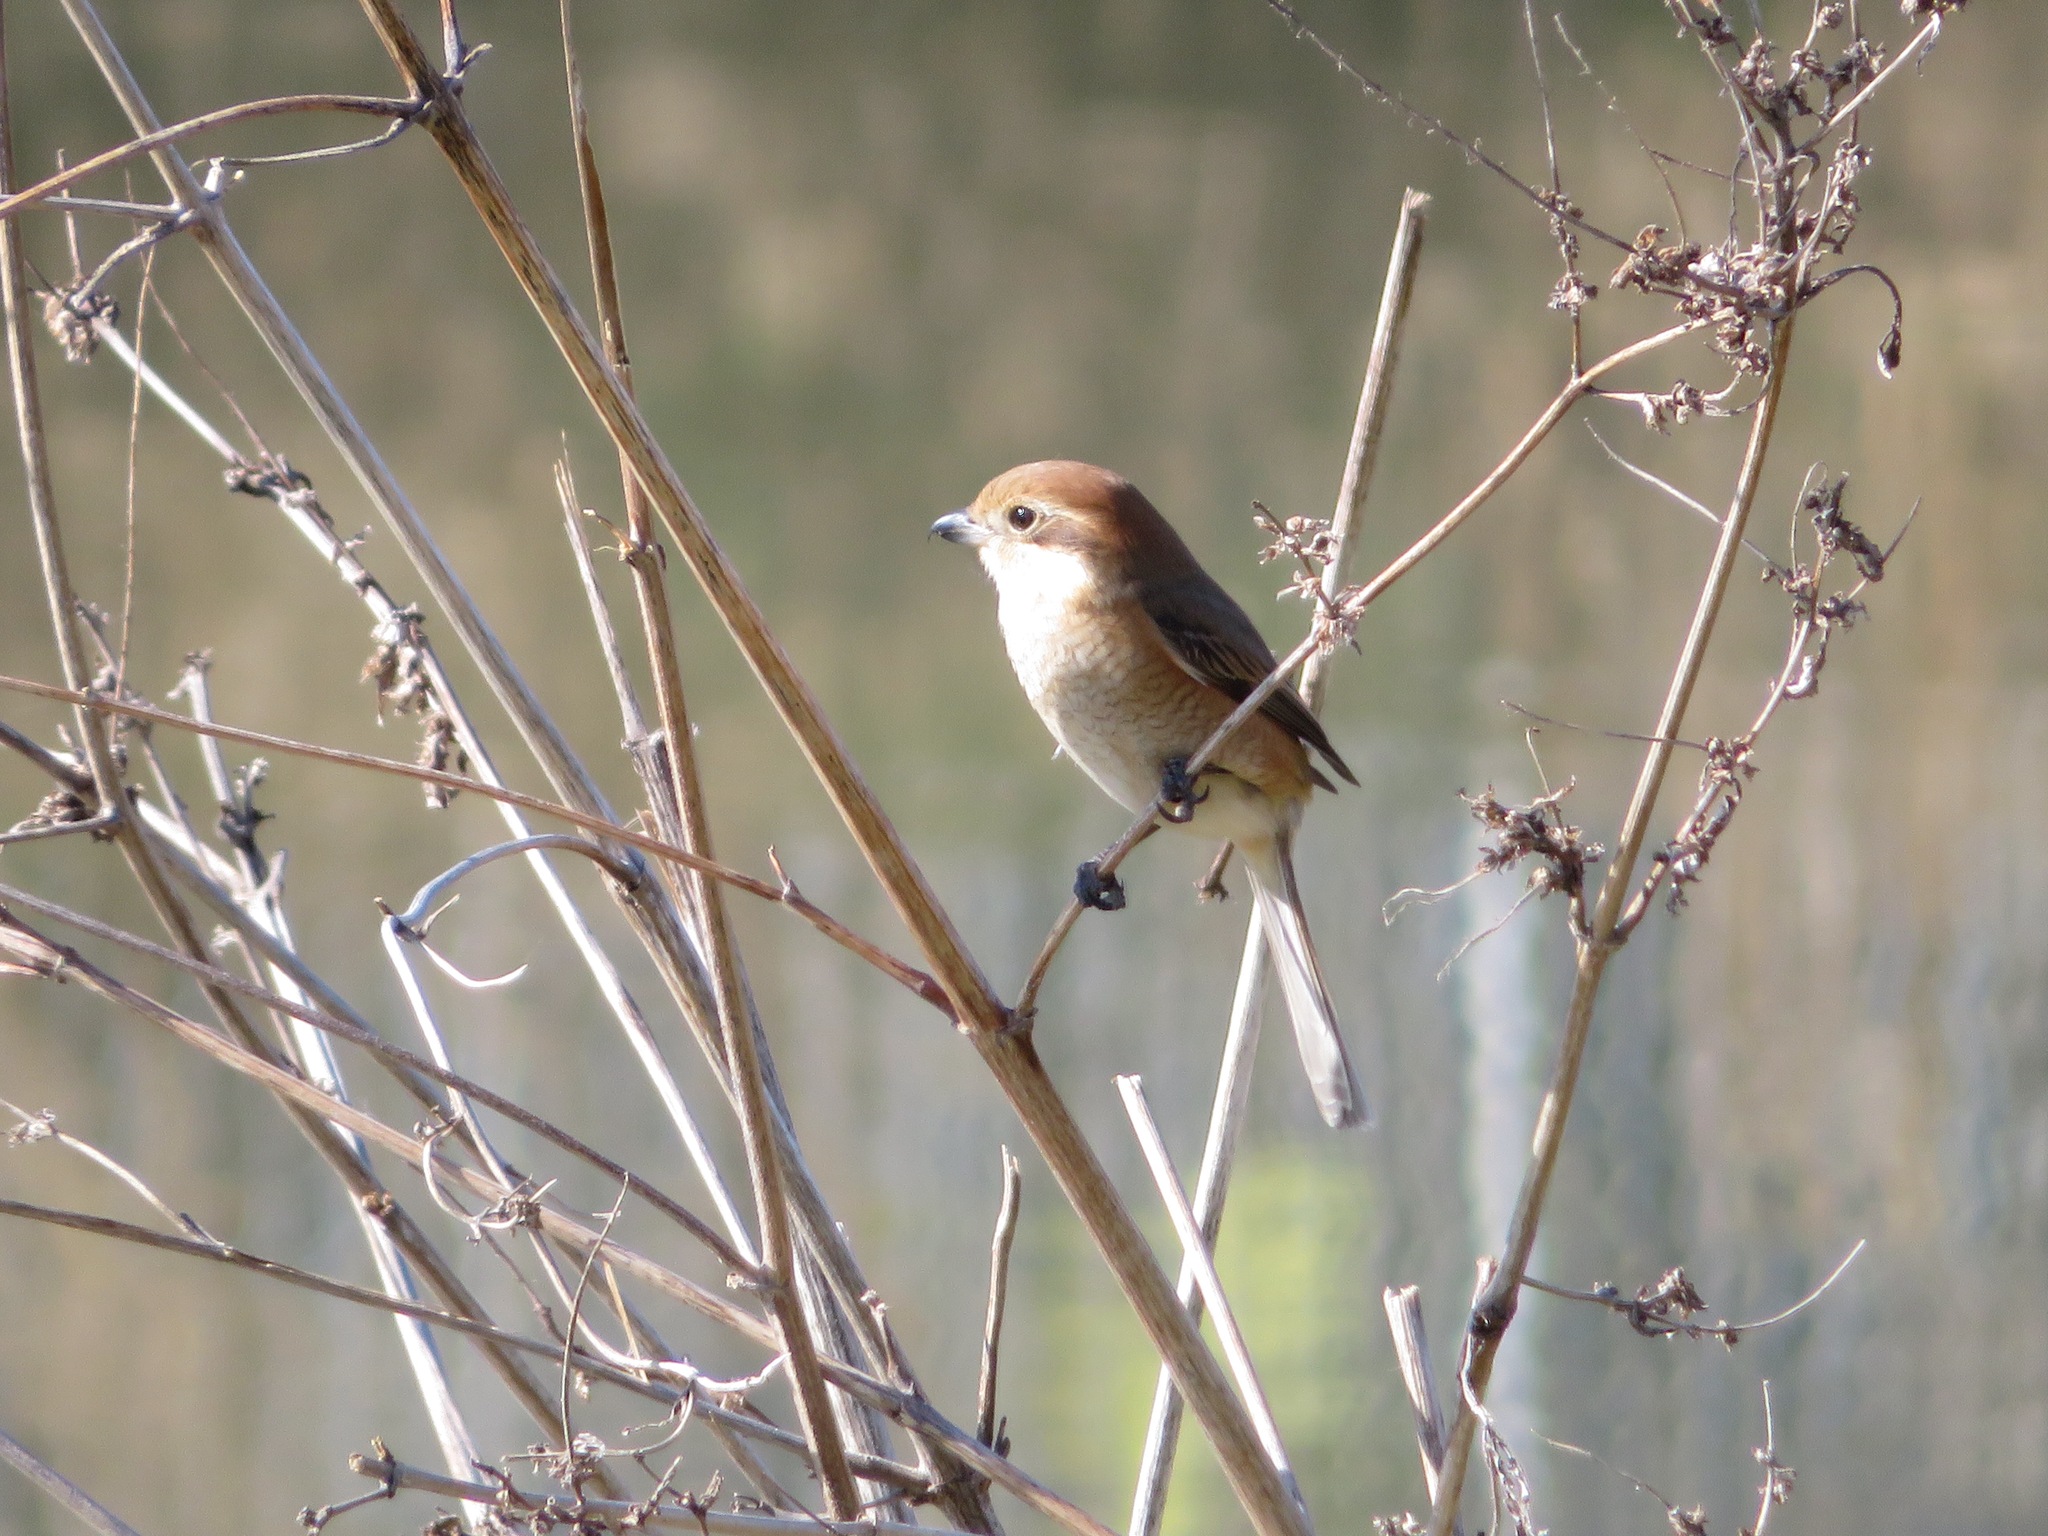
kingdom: Animalia
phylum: Chordata
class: Aves
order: Passeriformes
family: Laniidae
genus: Lanius
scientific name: Lanius bucephalus
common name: Bull-headed shrike
